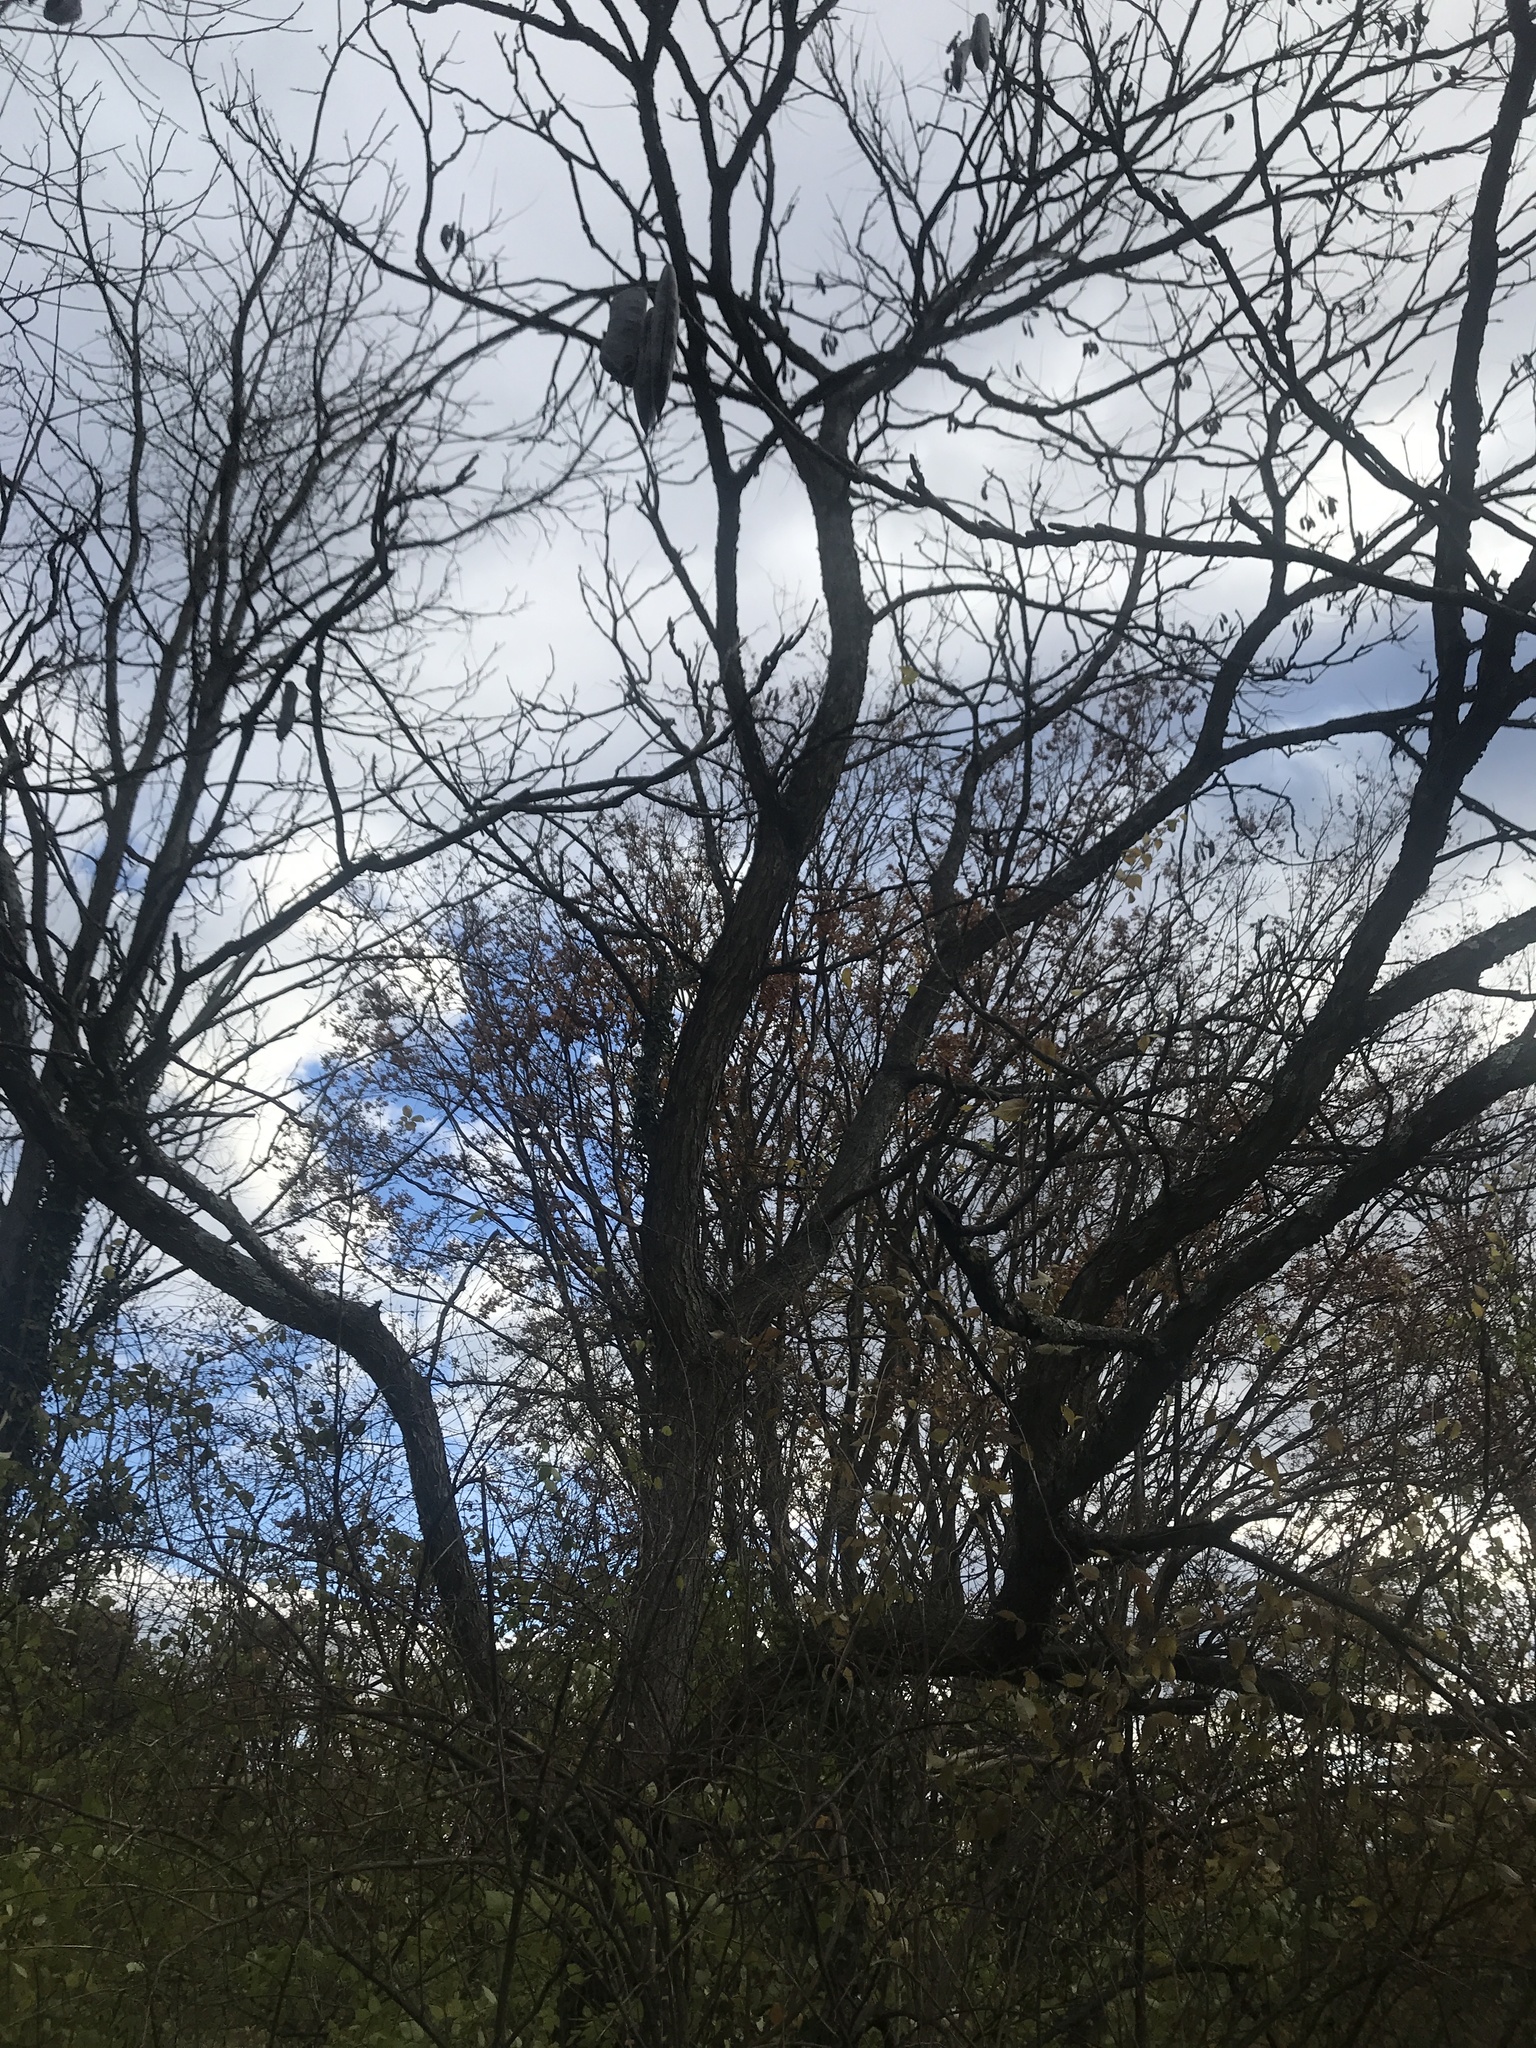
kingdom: Plantae
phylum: Tracheophyta
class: Magnoliopsida
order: Fabales
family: Fabaceae
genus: Gymnocladus
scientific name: Gymnocladus dioicus
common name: Kentucky coffee-tree
